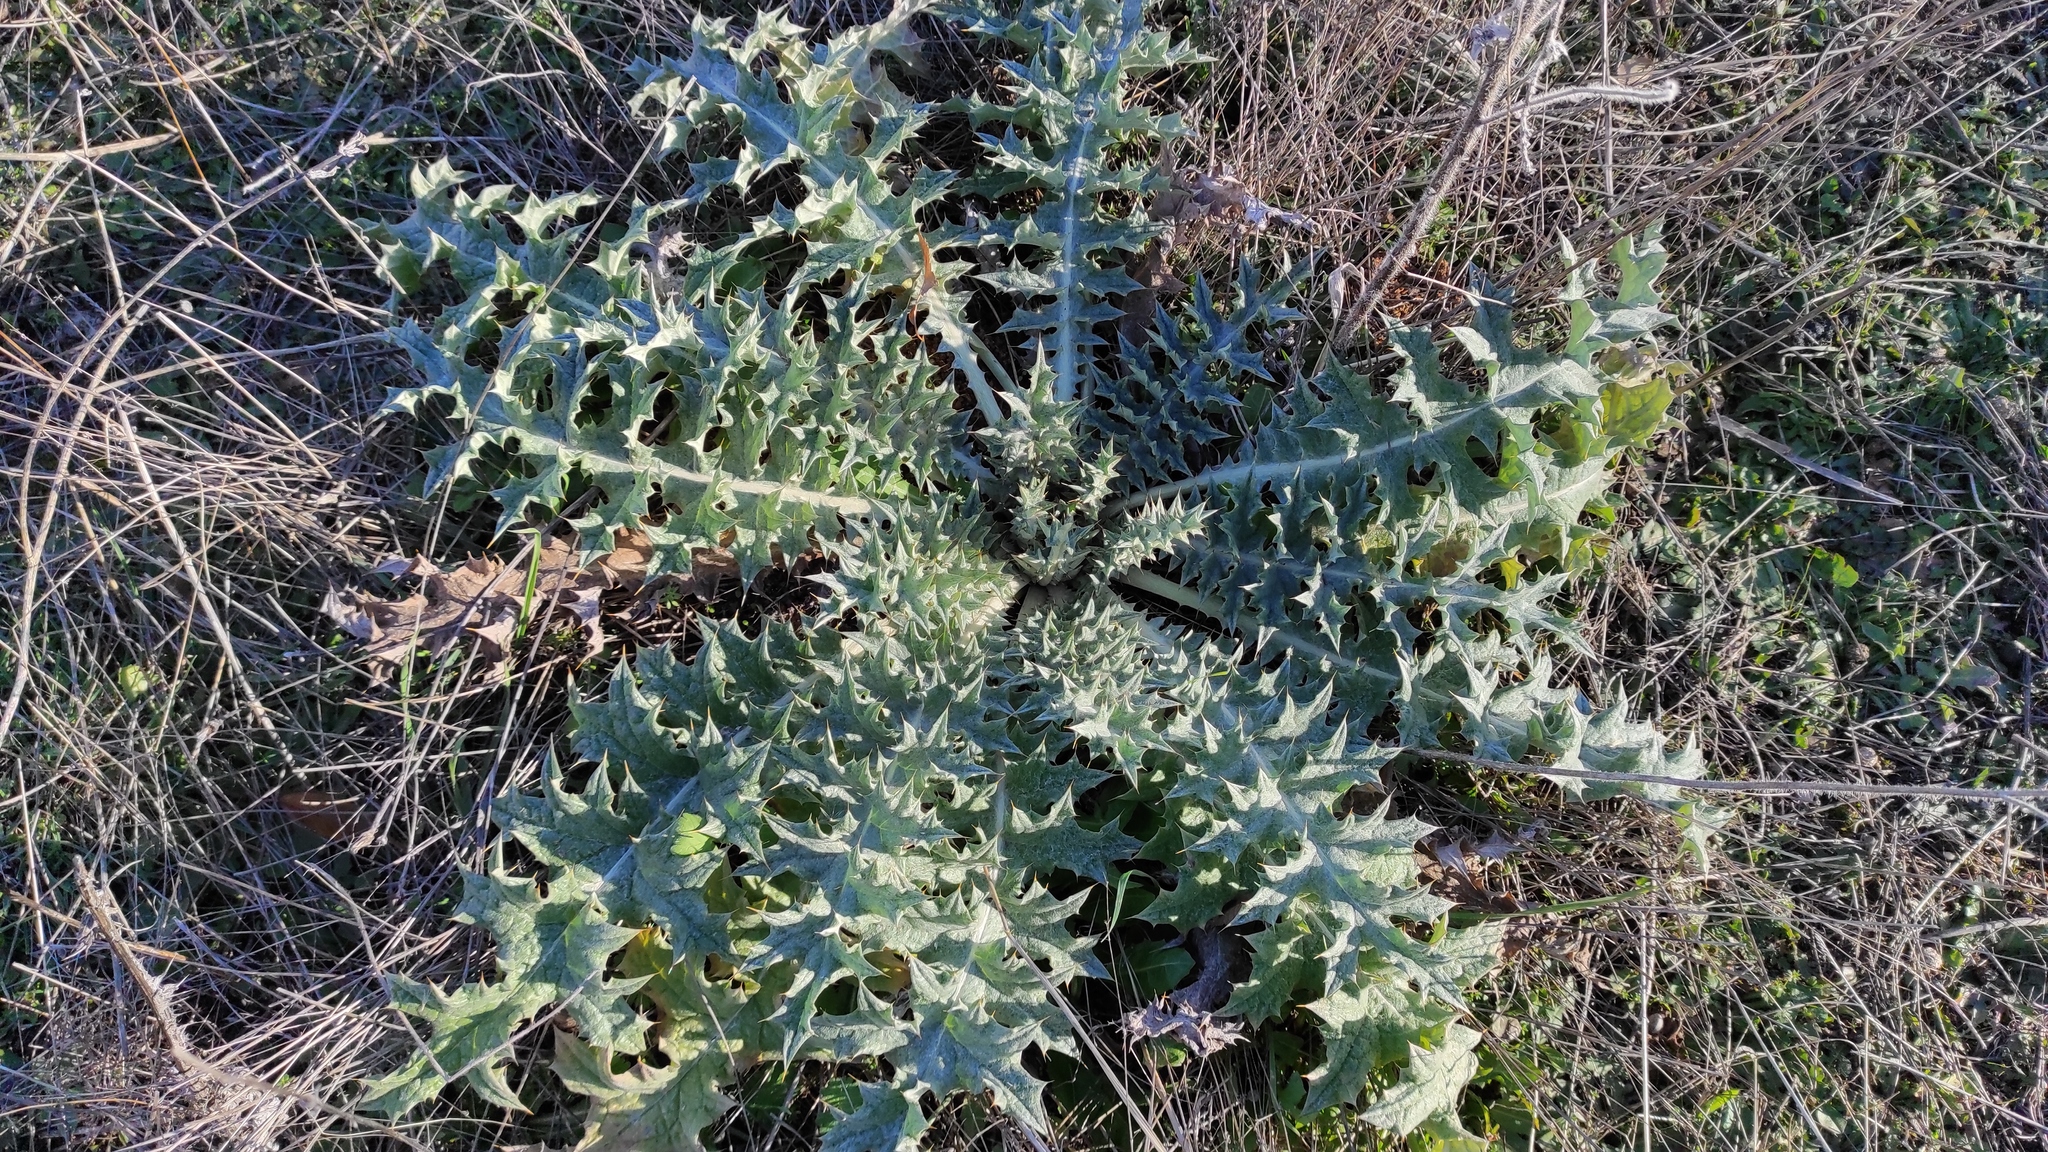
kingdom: Plantae
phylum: Tracheophyta
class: Magnoliopsida
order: Asterales
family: Asteraceae
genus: Onopordum
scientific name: Onopordum illyricum
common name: Illyrian thistle
